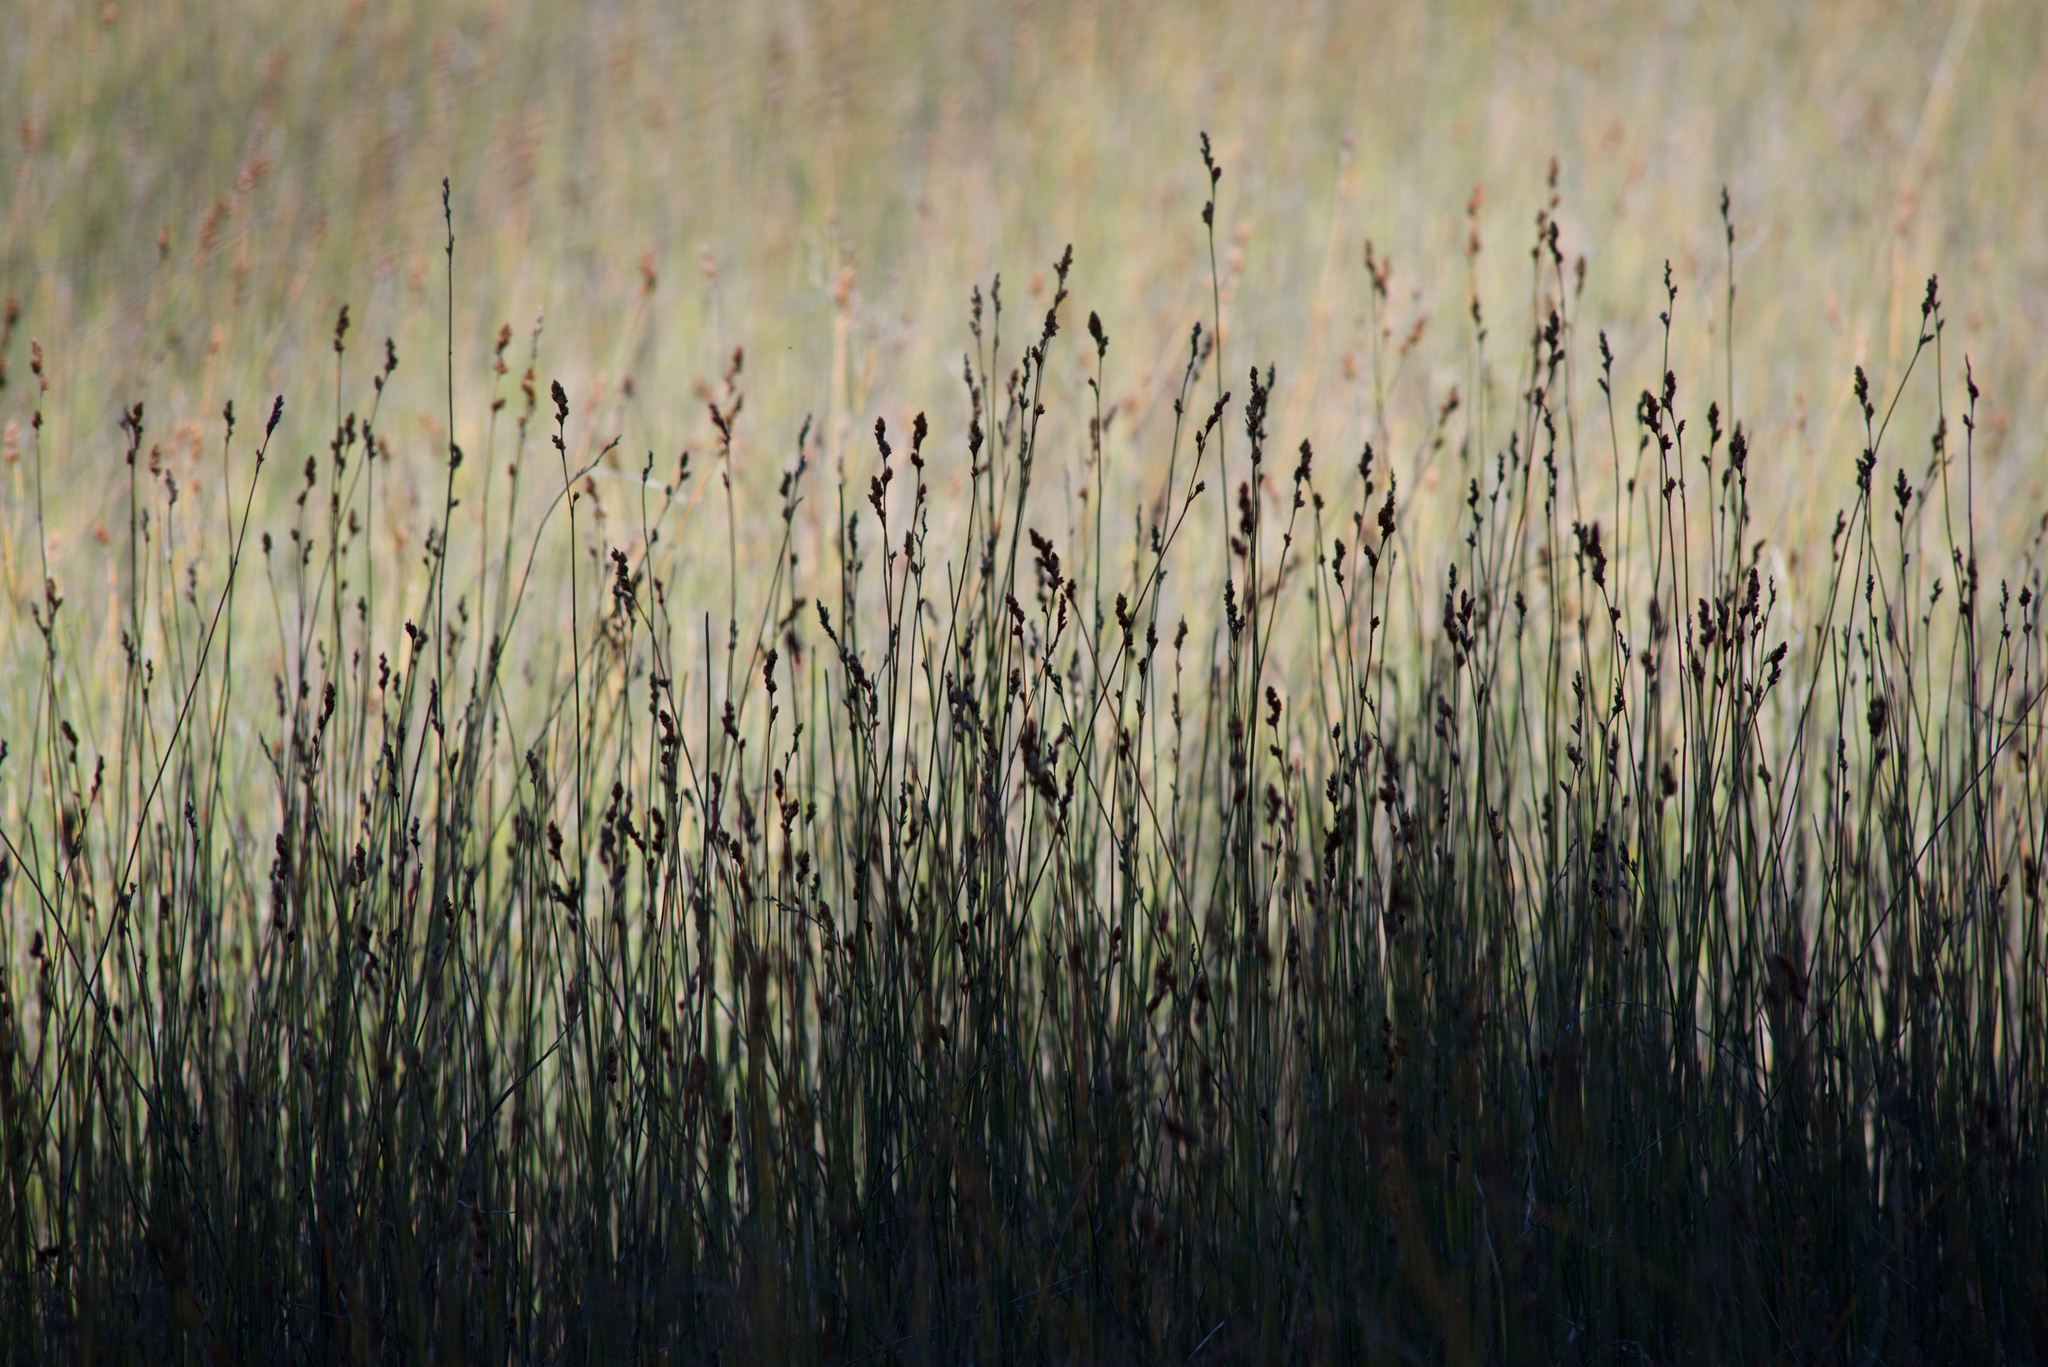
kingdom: Plantae
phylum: Tracheophyta
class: Liliopsida
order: Poales
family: Restionaceae
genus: Apodasmia
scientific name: Apodasmia similis
